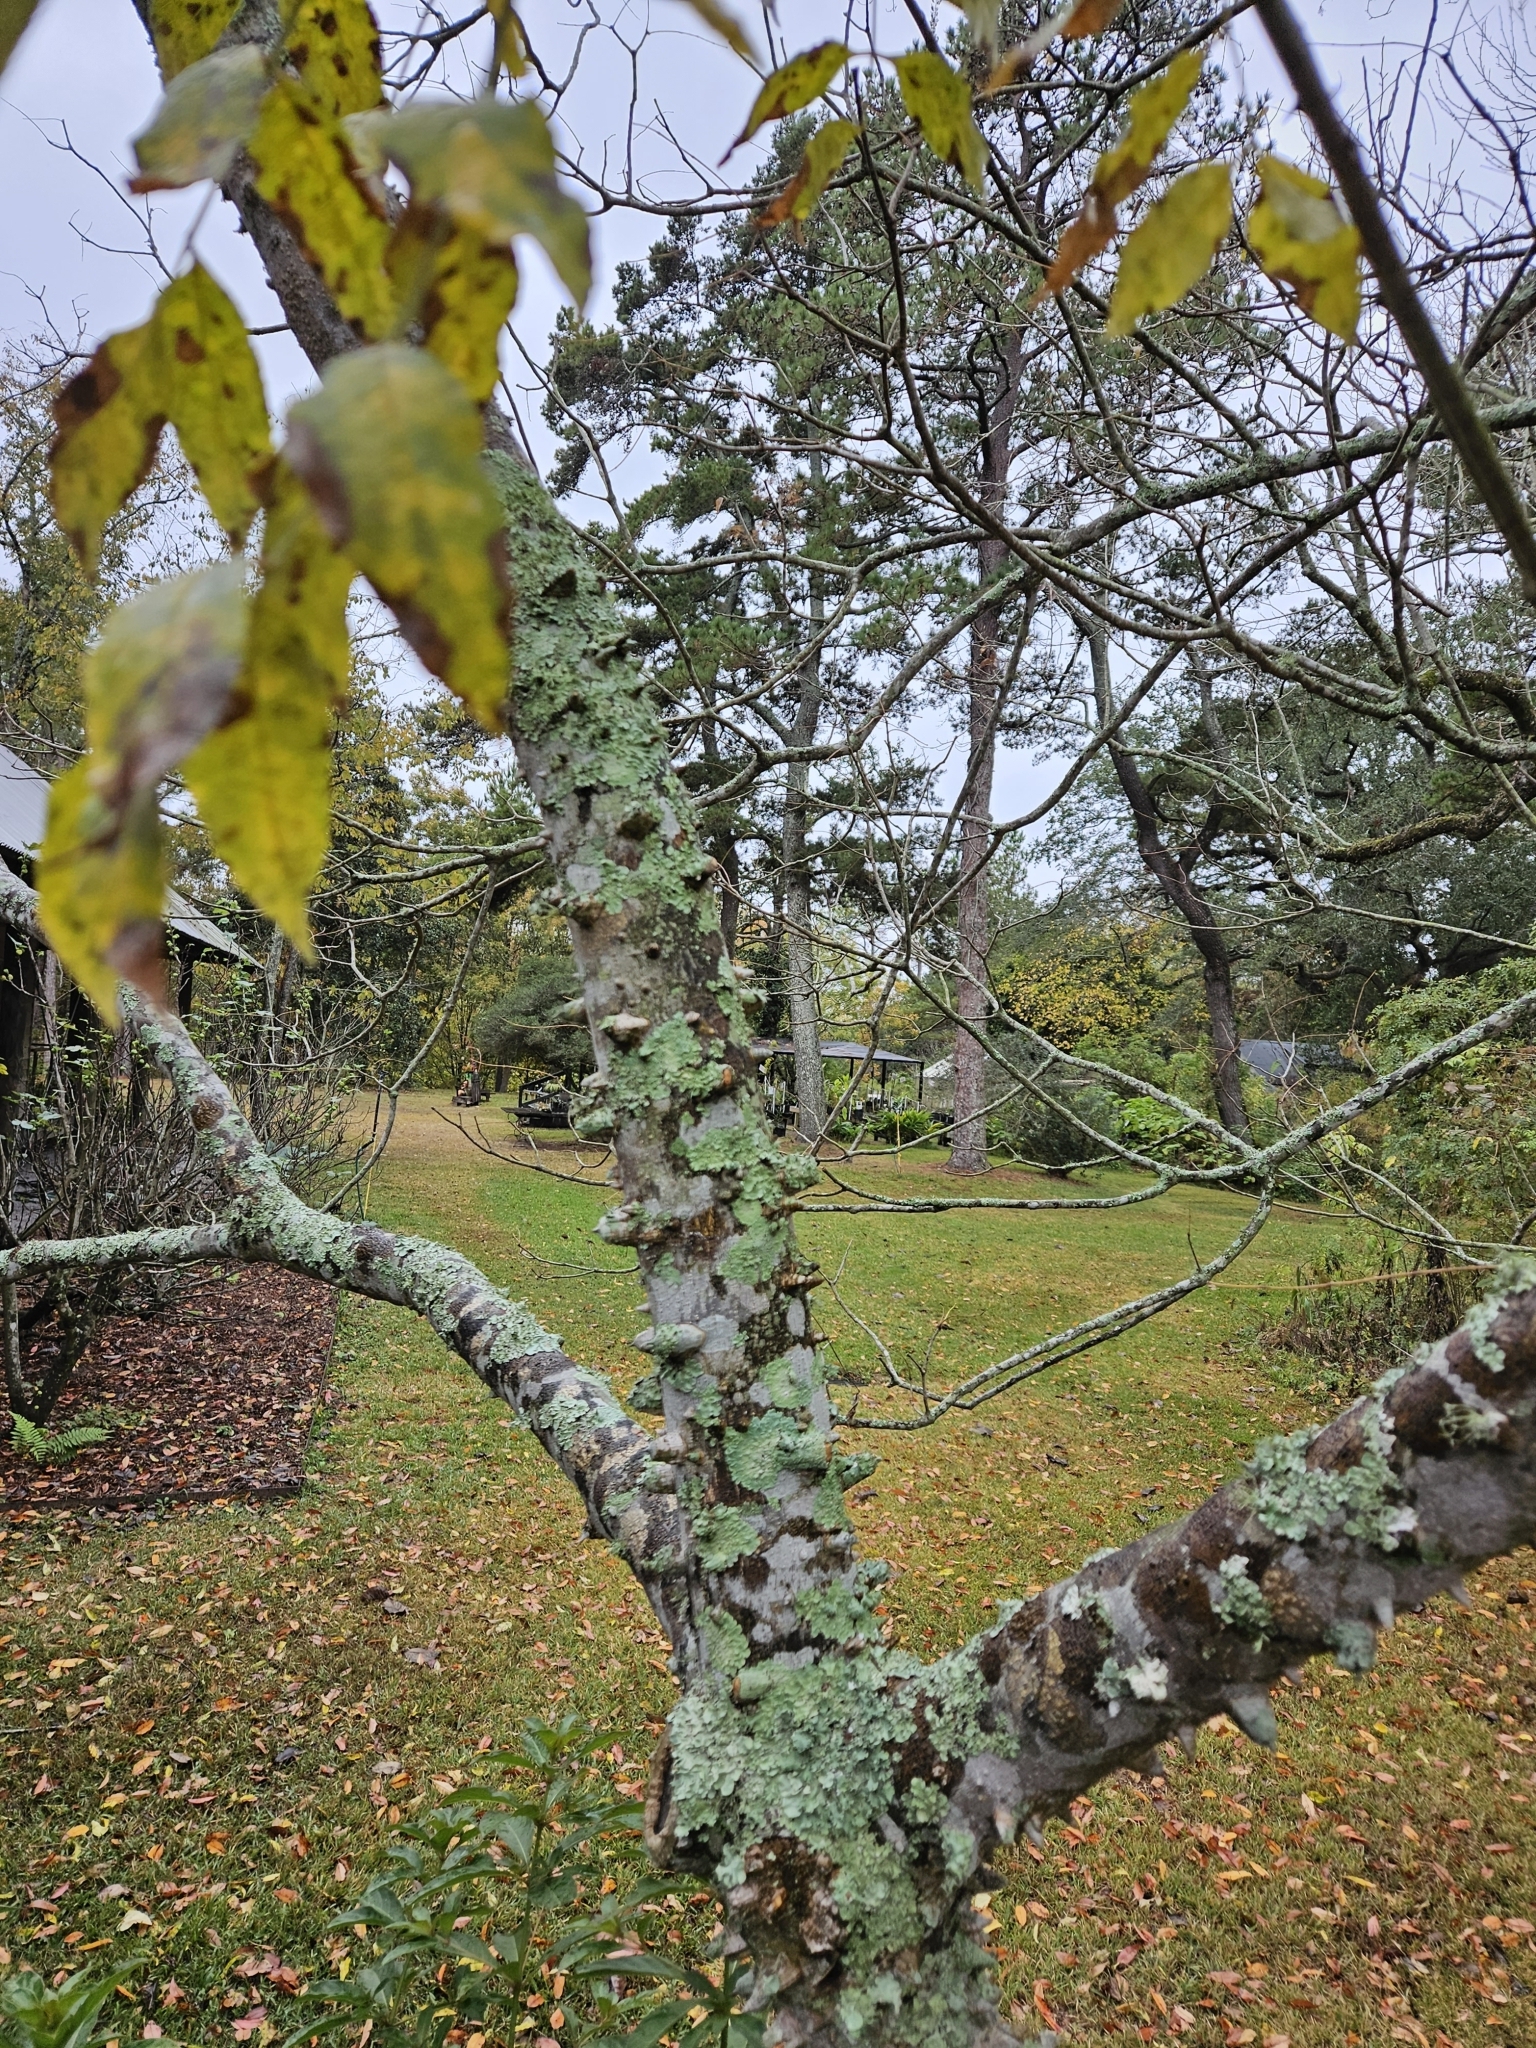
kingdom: Plantae
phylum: Tracheophyta
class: Magnoliopsida
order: Sapindales
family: Rutaceae
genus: Zanthoxylum
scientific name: Zanthoxylum clava-herculis
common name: Hercules'-club
